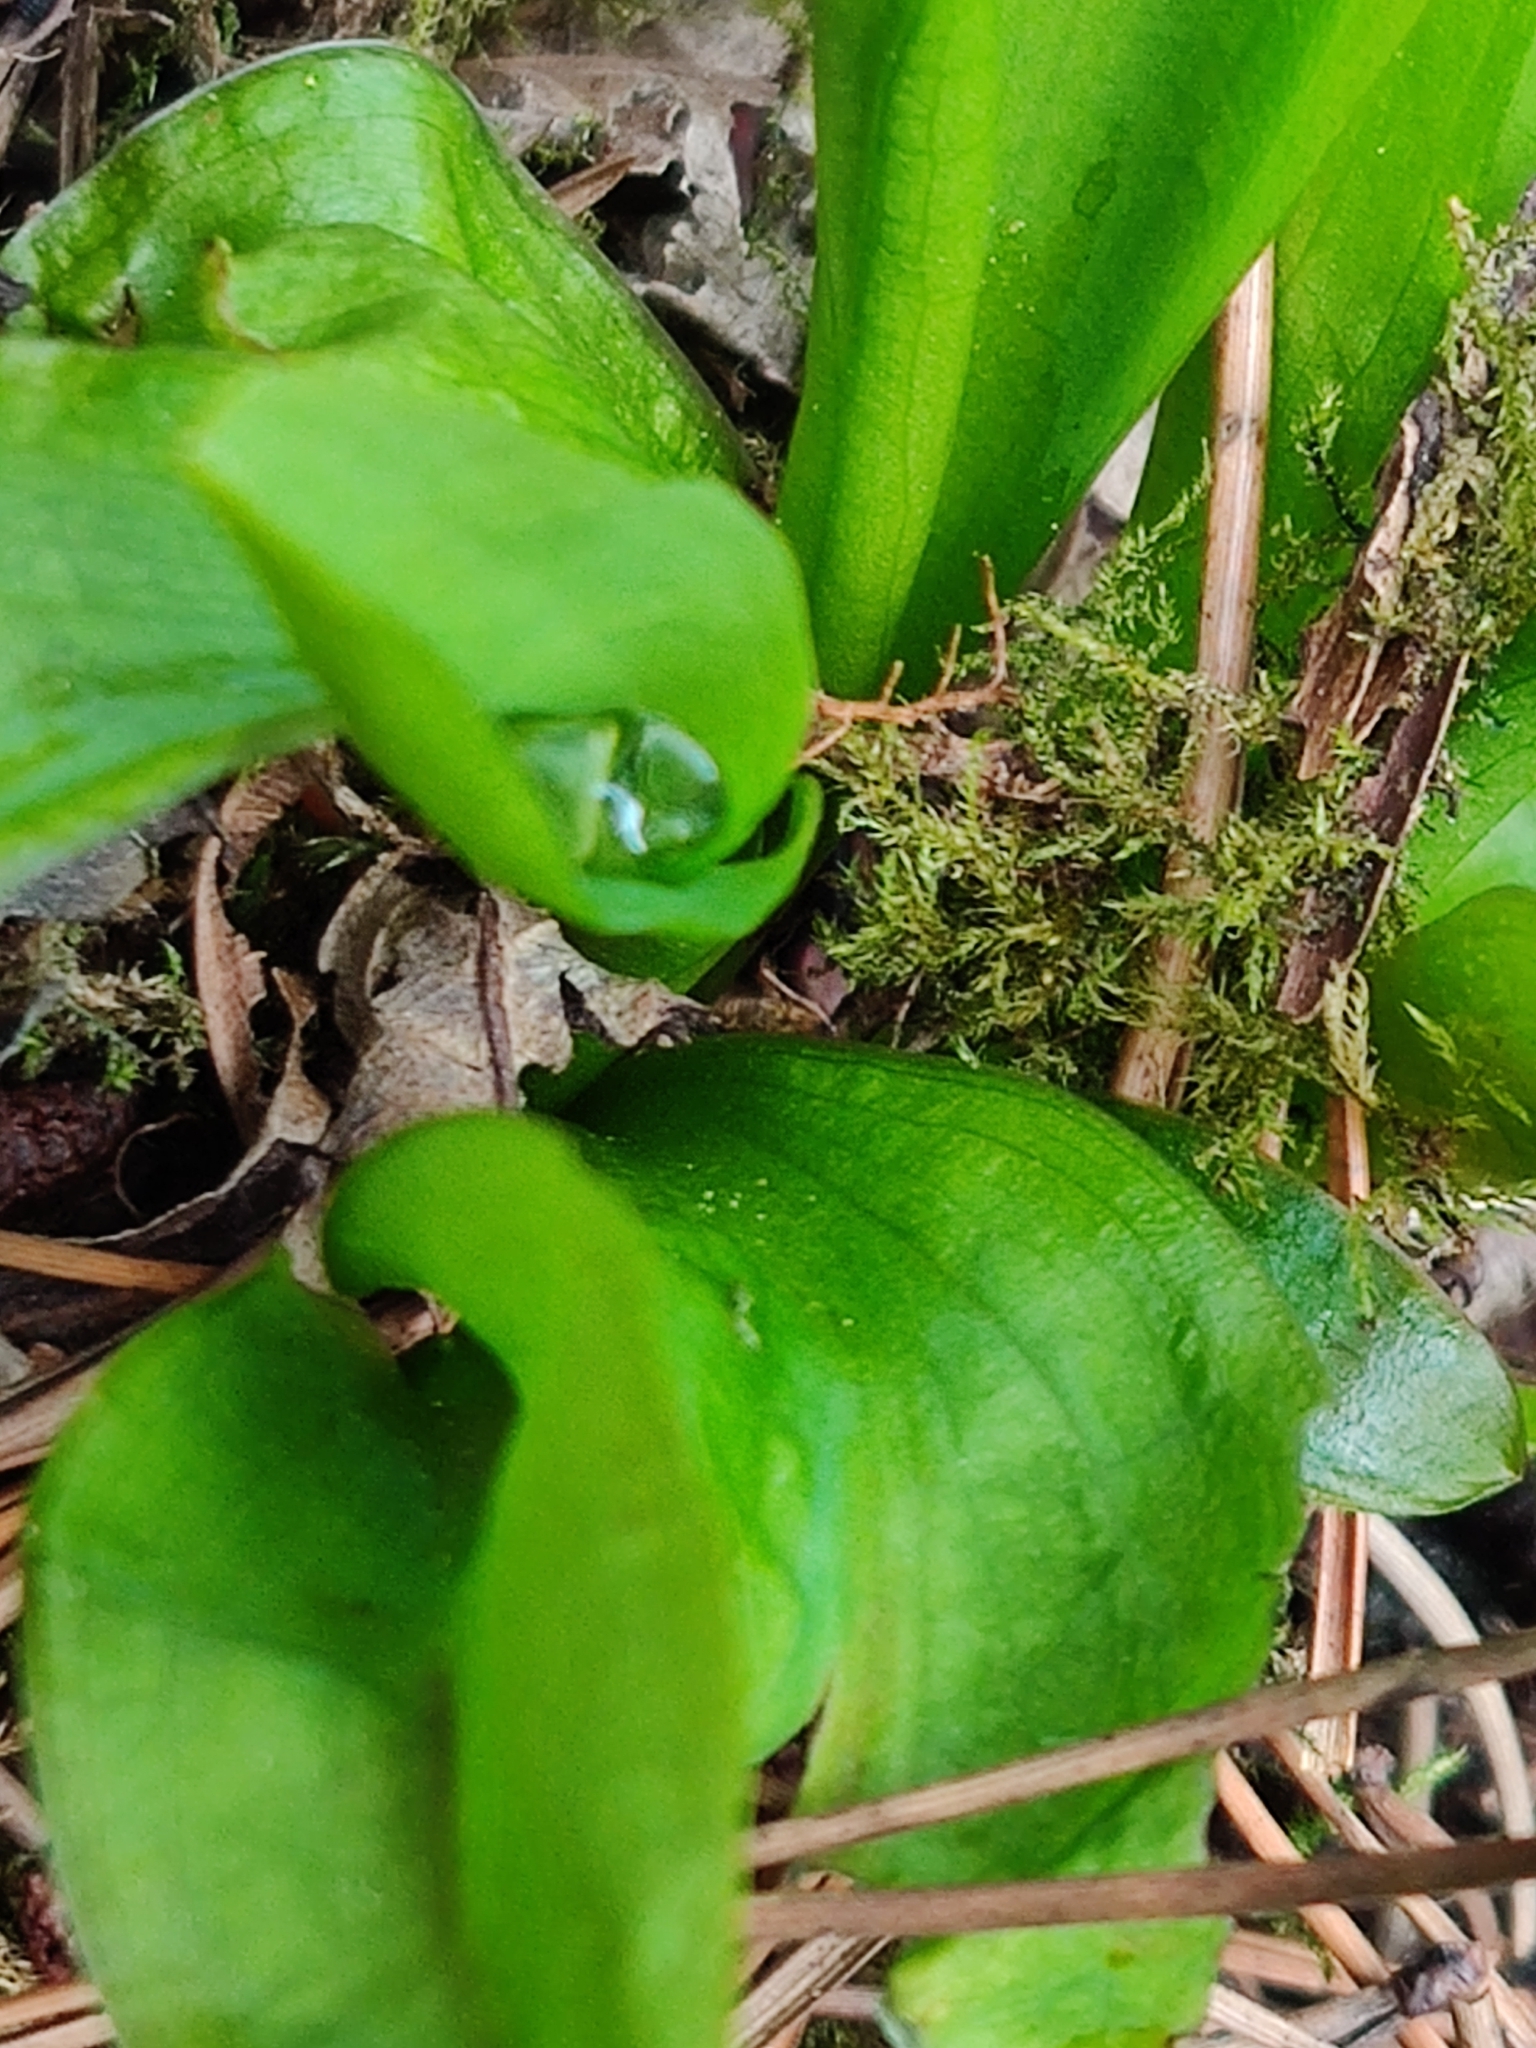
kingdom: Plantae
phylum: Tracheophyta
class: Liliopsida
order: Alismatales
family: Araceae
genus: Lysichiton
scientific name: Lysichiton americanus
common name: American skunk cabbage
